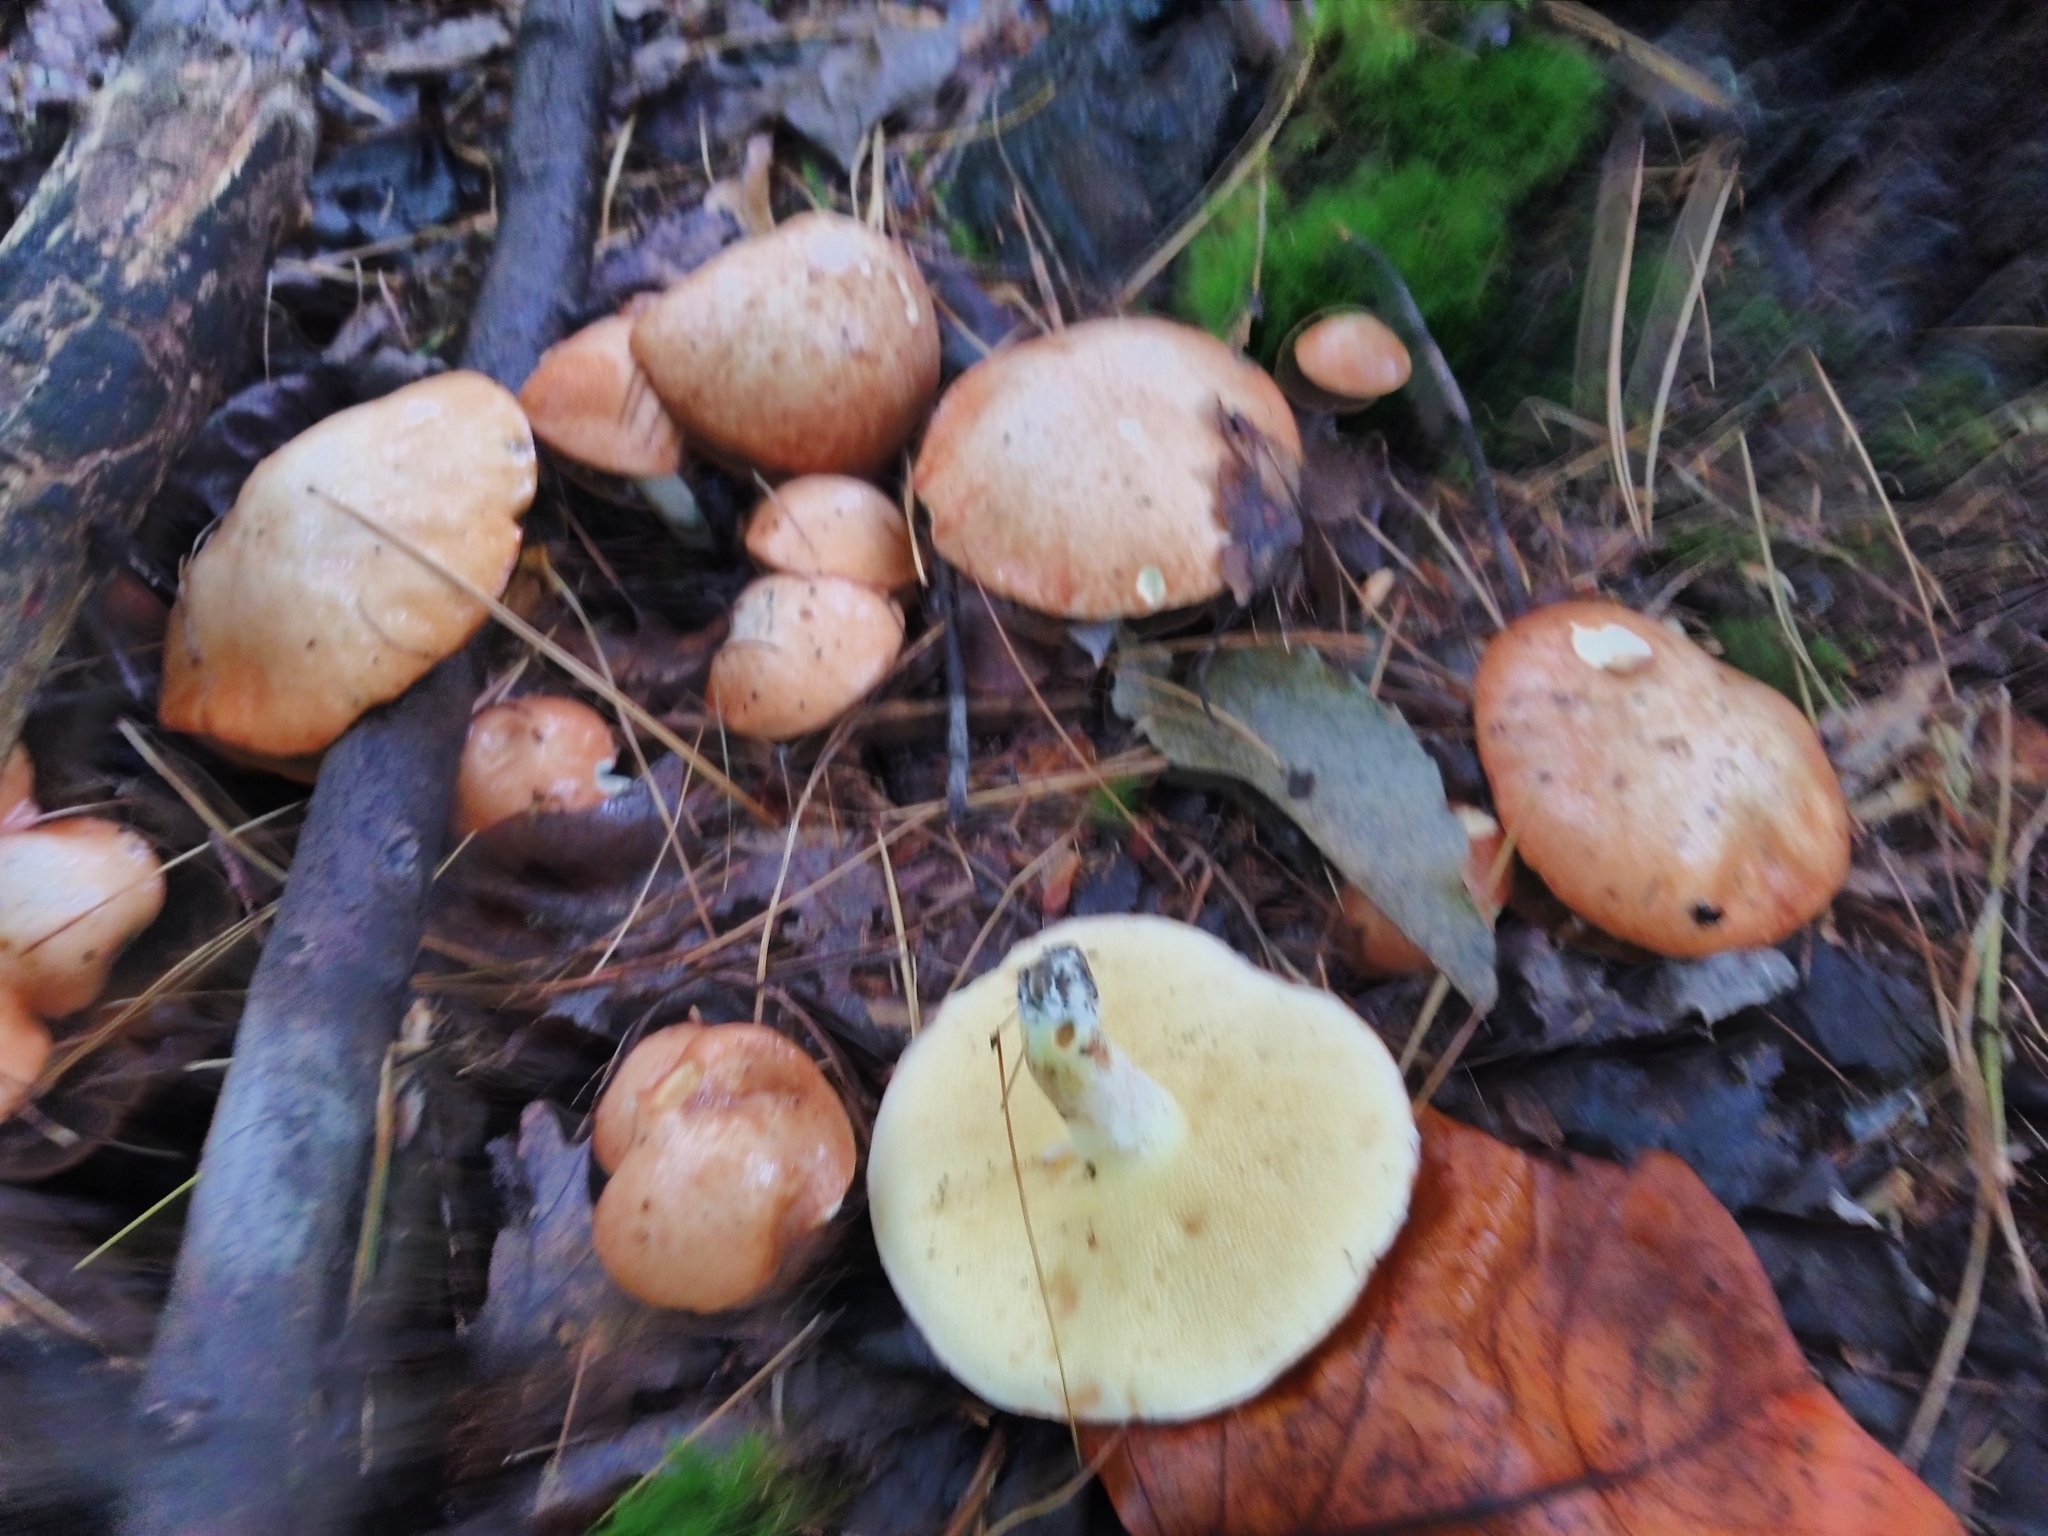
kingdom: Fungi
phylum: Basidiomycota
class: Agaricomycetes
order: Boletales
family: Suillaceae
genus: Suillus
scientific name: Suillus granulatus
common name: Weeping bolete
